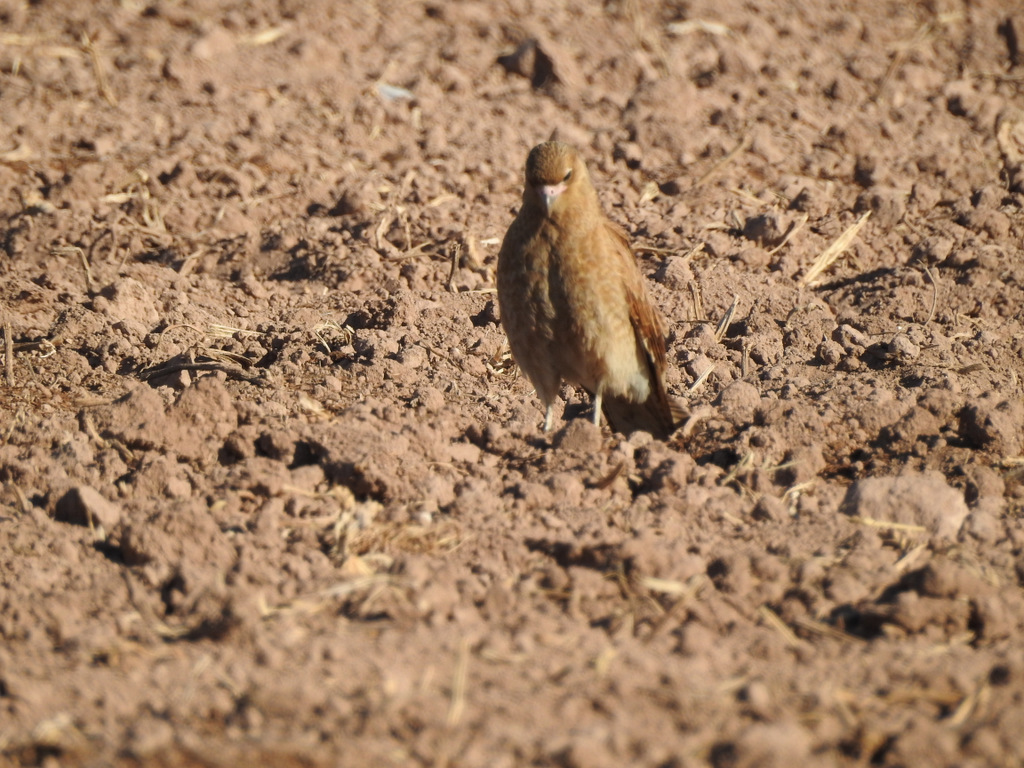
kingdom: Animalia
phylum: Chordata
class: Aves
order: Falconiformes
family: Falconidae
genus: Daptrius
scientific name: Daptrius
